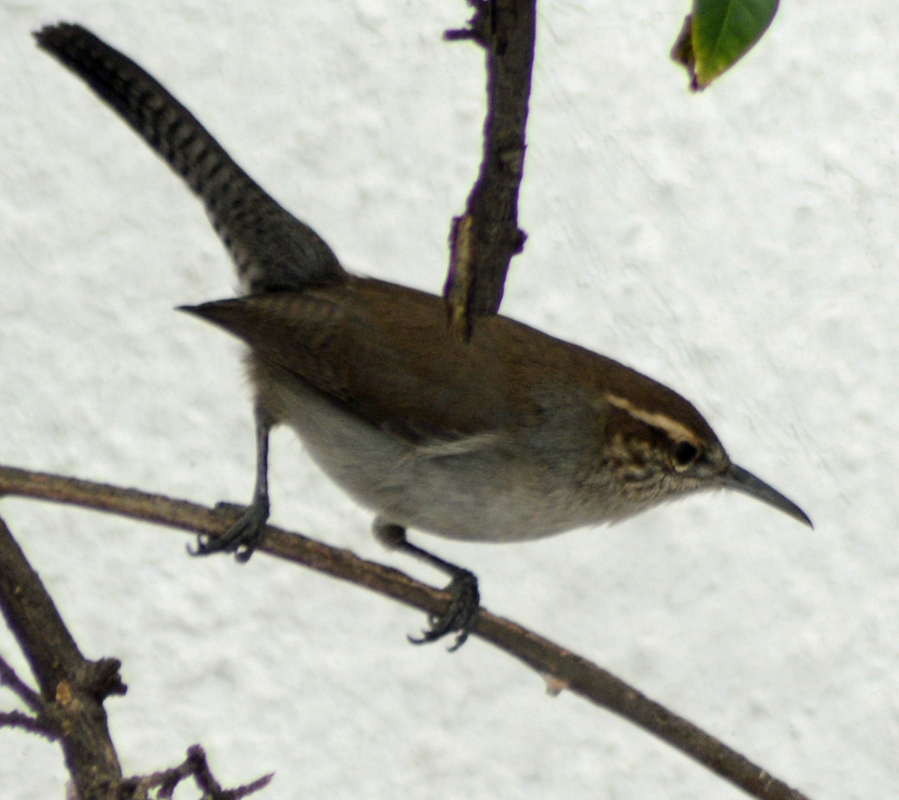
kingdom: Animalia
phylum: Chordata
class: Aves
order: Passeriformes
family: Troglodytidae
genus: Thryomanes
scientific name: Thryomanes bewickii
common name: Bewick's wren
